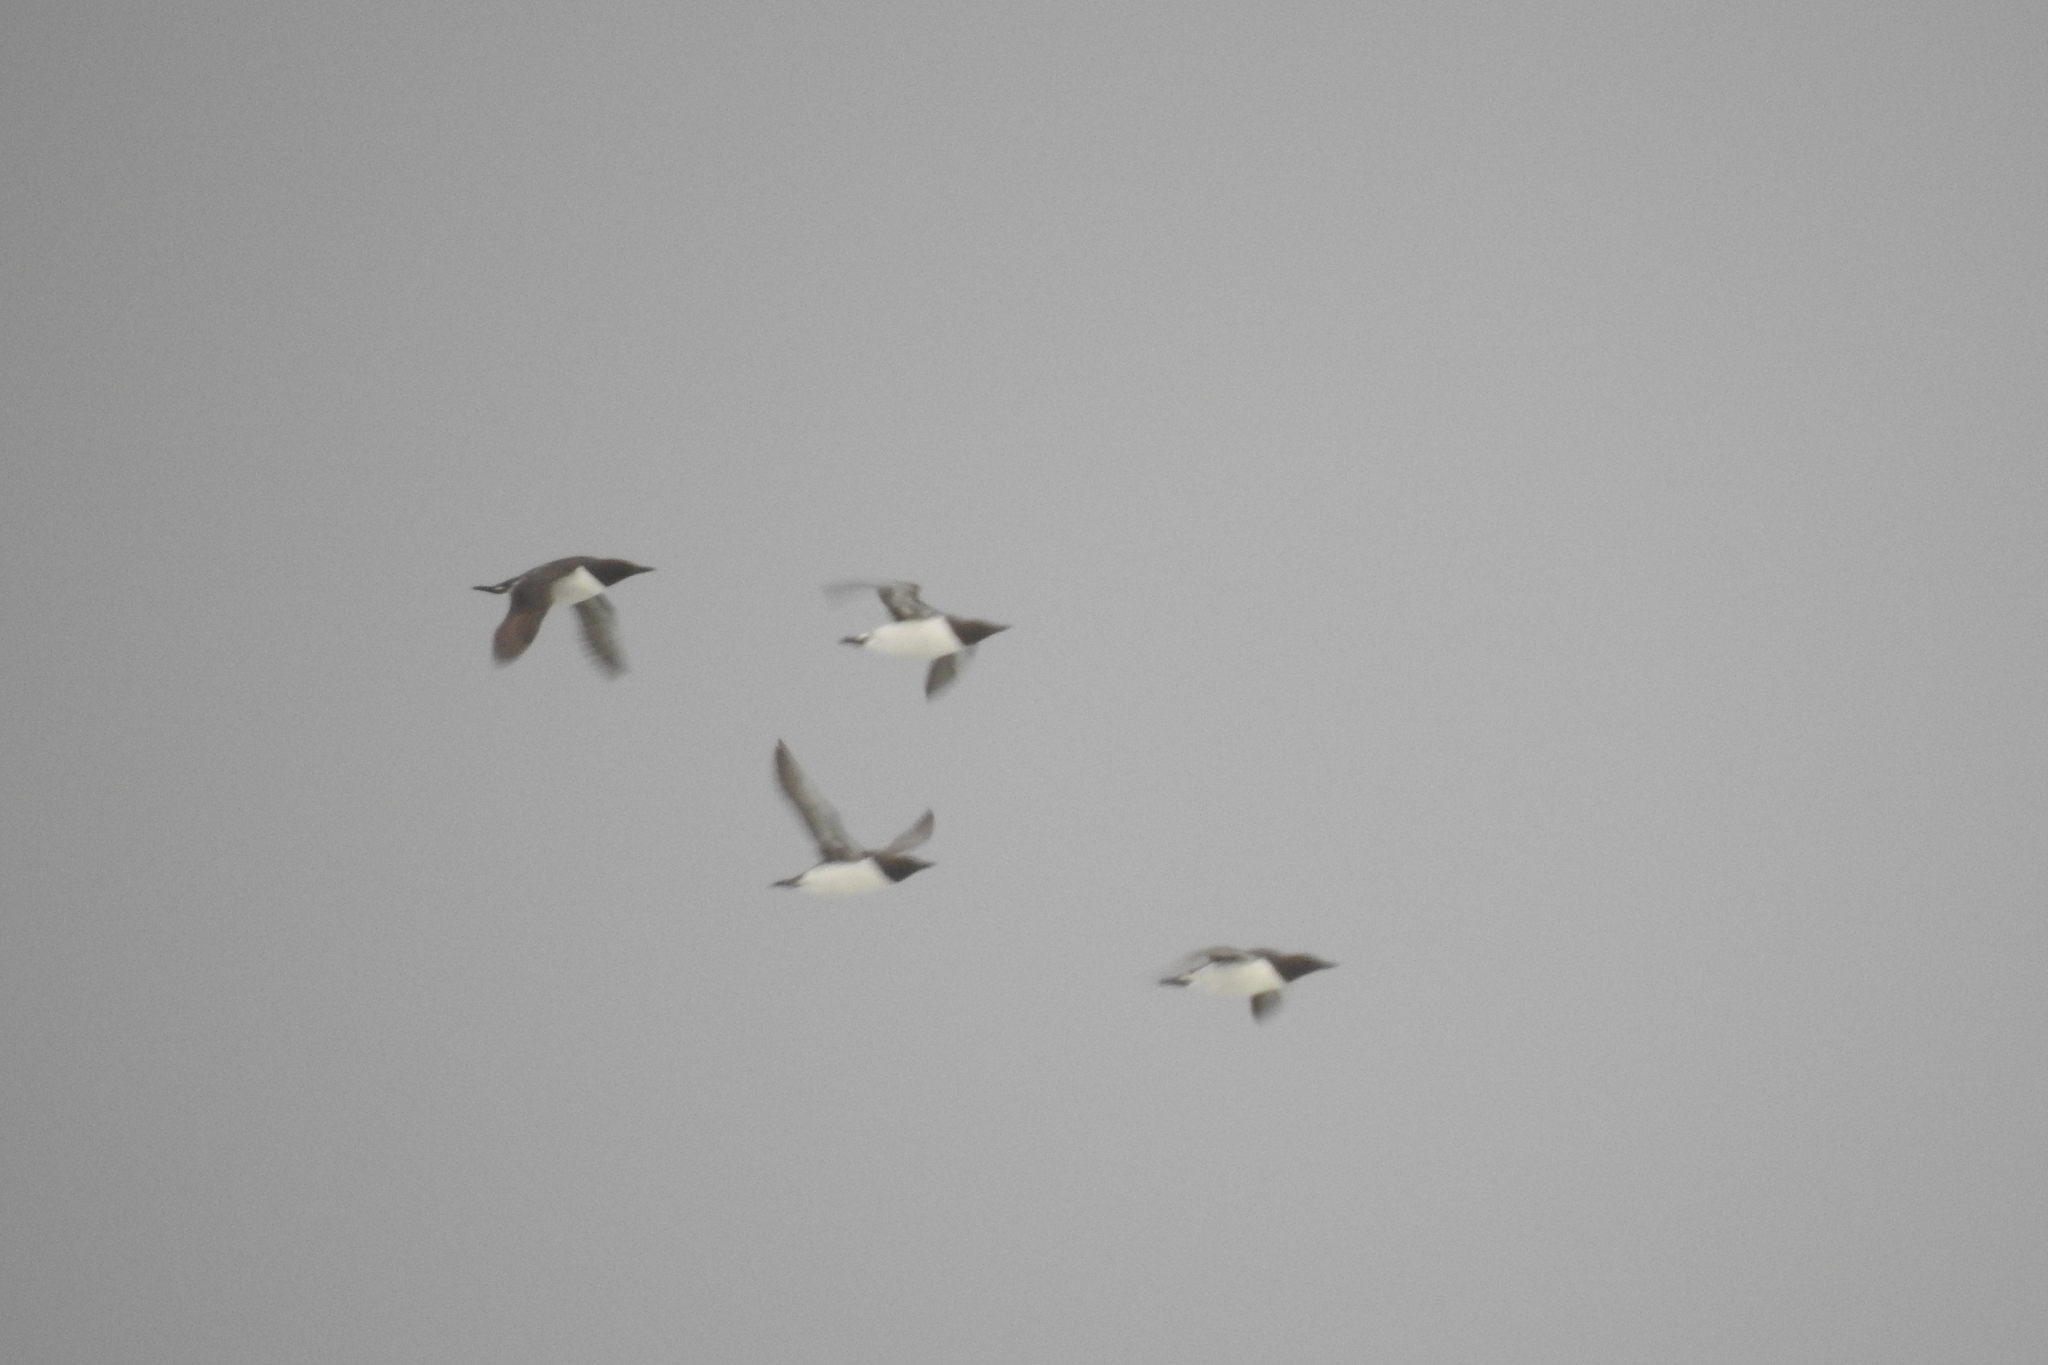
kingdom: Animalia
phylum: Chordata
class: Aves
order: Charadriiformes
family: Alcidae
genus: Uria
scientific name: Uria aalge
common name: Common murre
